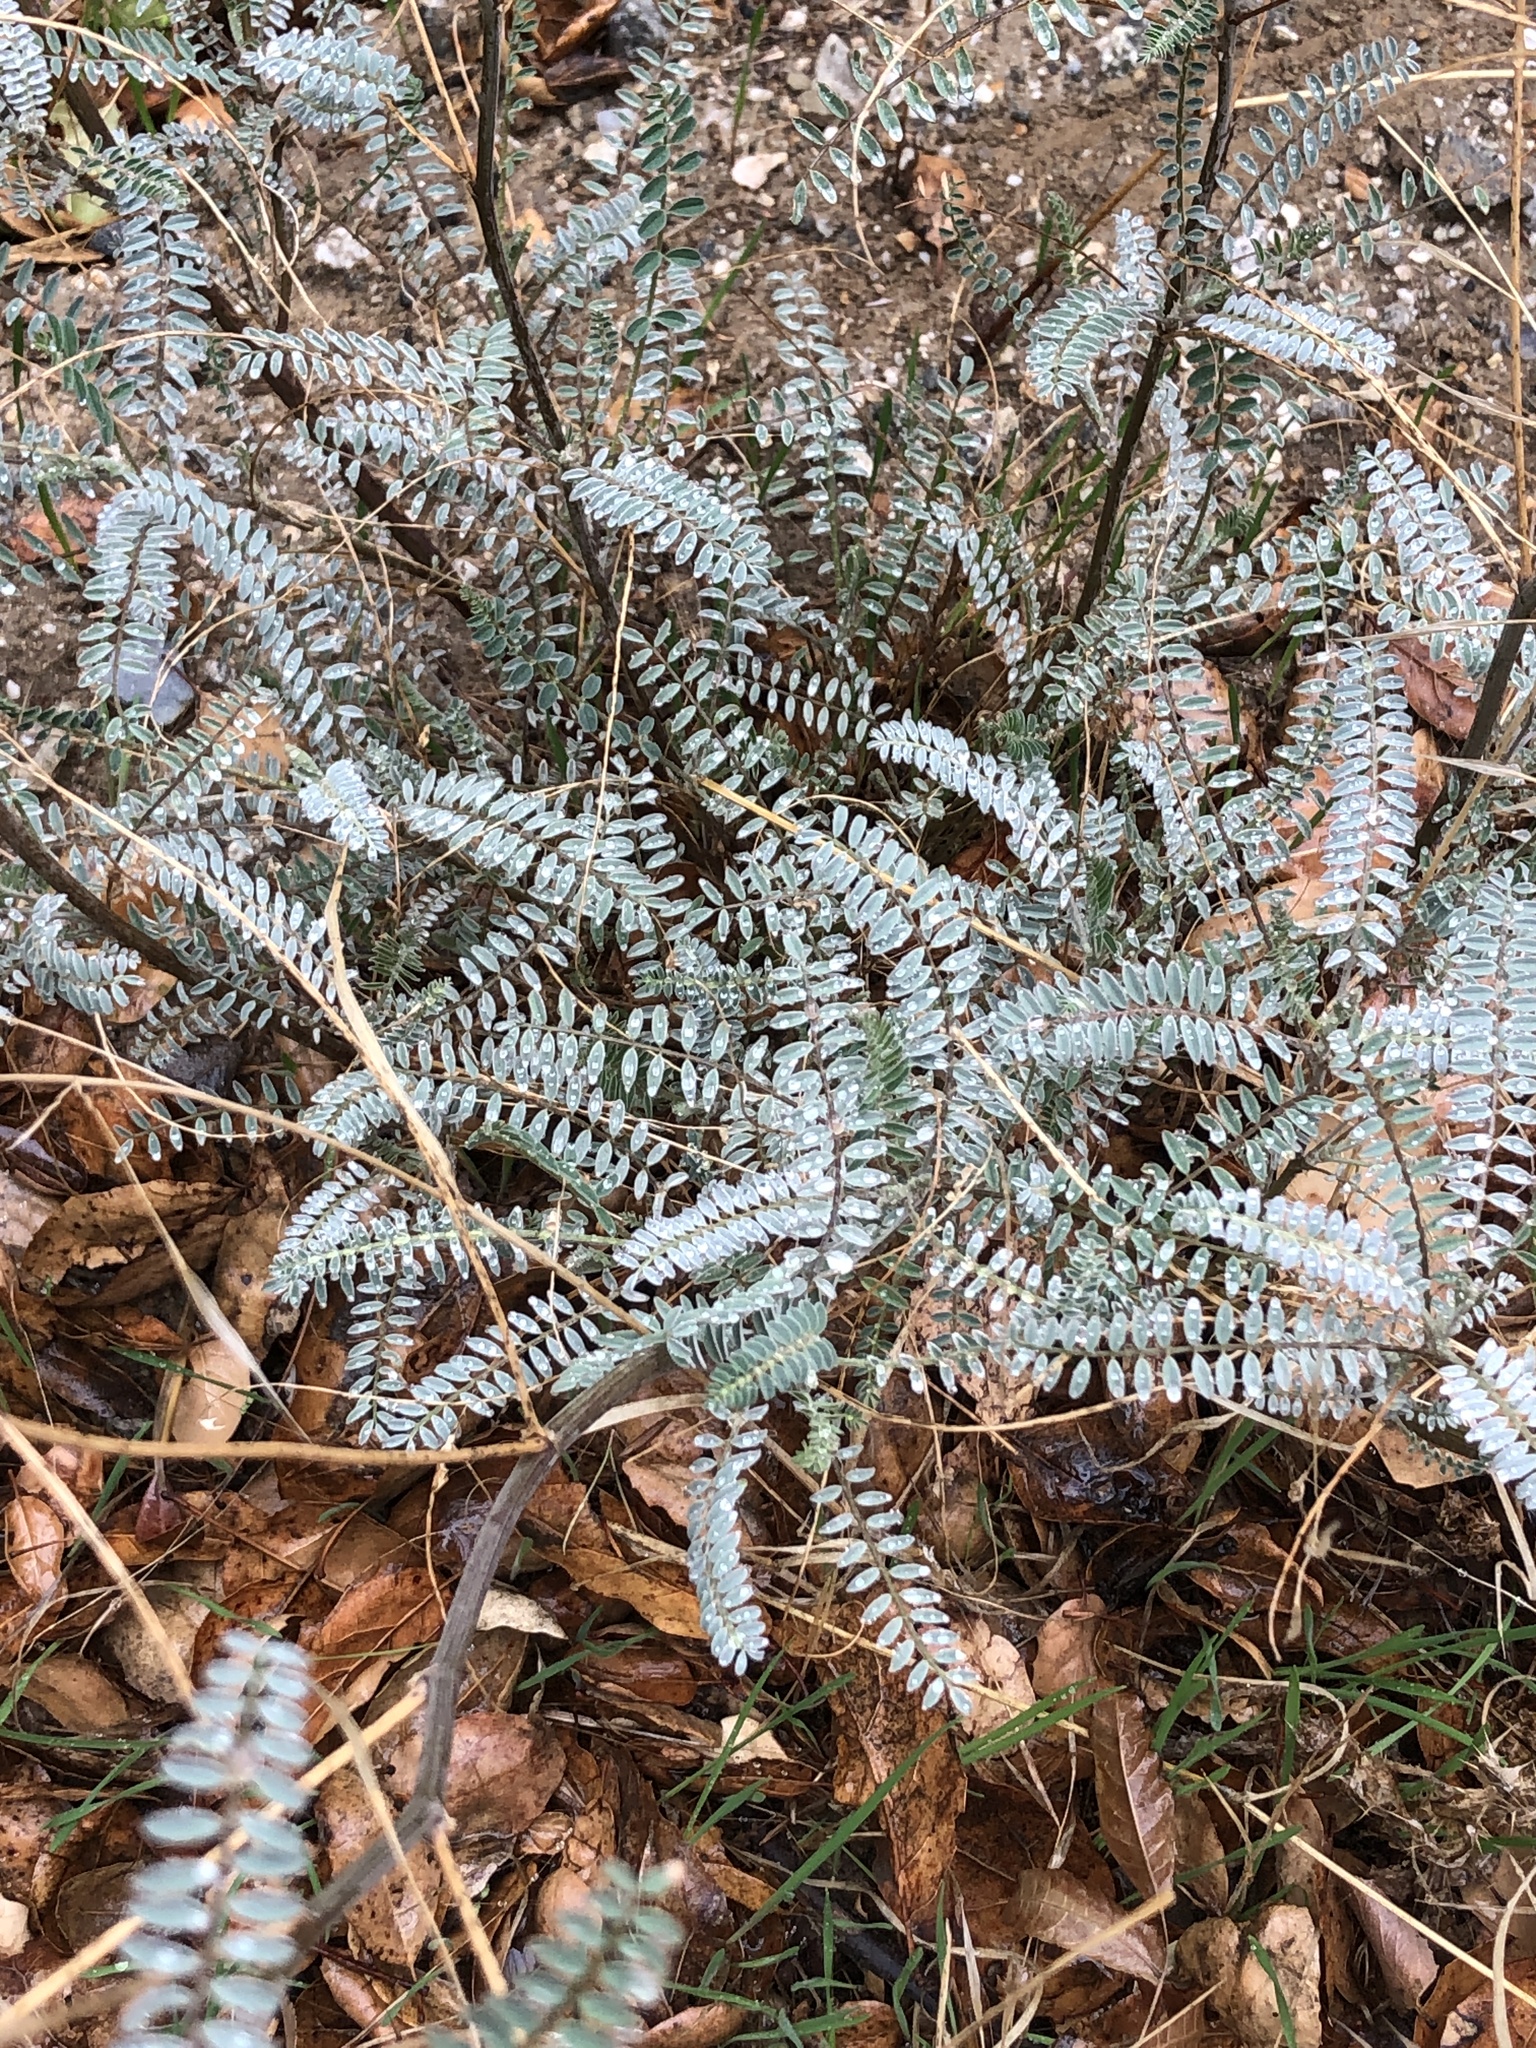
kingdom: Plantae
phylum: Tracheophyta
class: Magnoliopsida
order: Fabales
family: Fabaceae
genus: Astragalus
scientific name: Astragalus trichopodus
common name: Santa barbara milk-vetch
